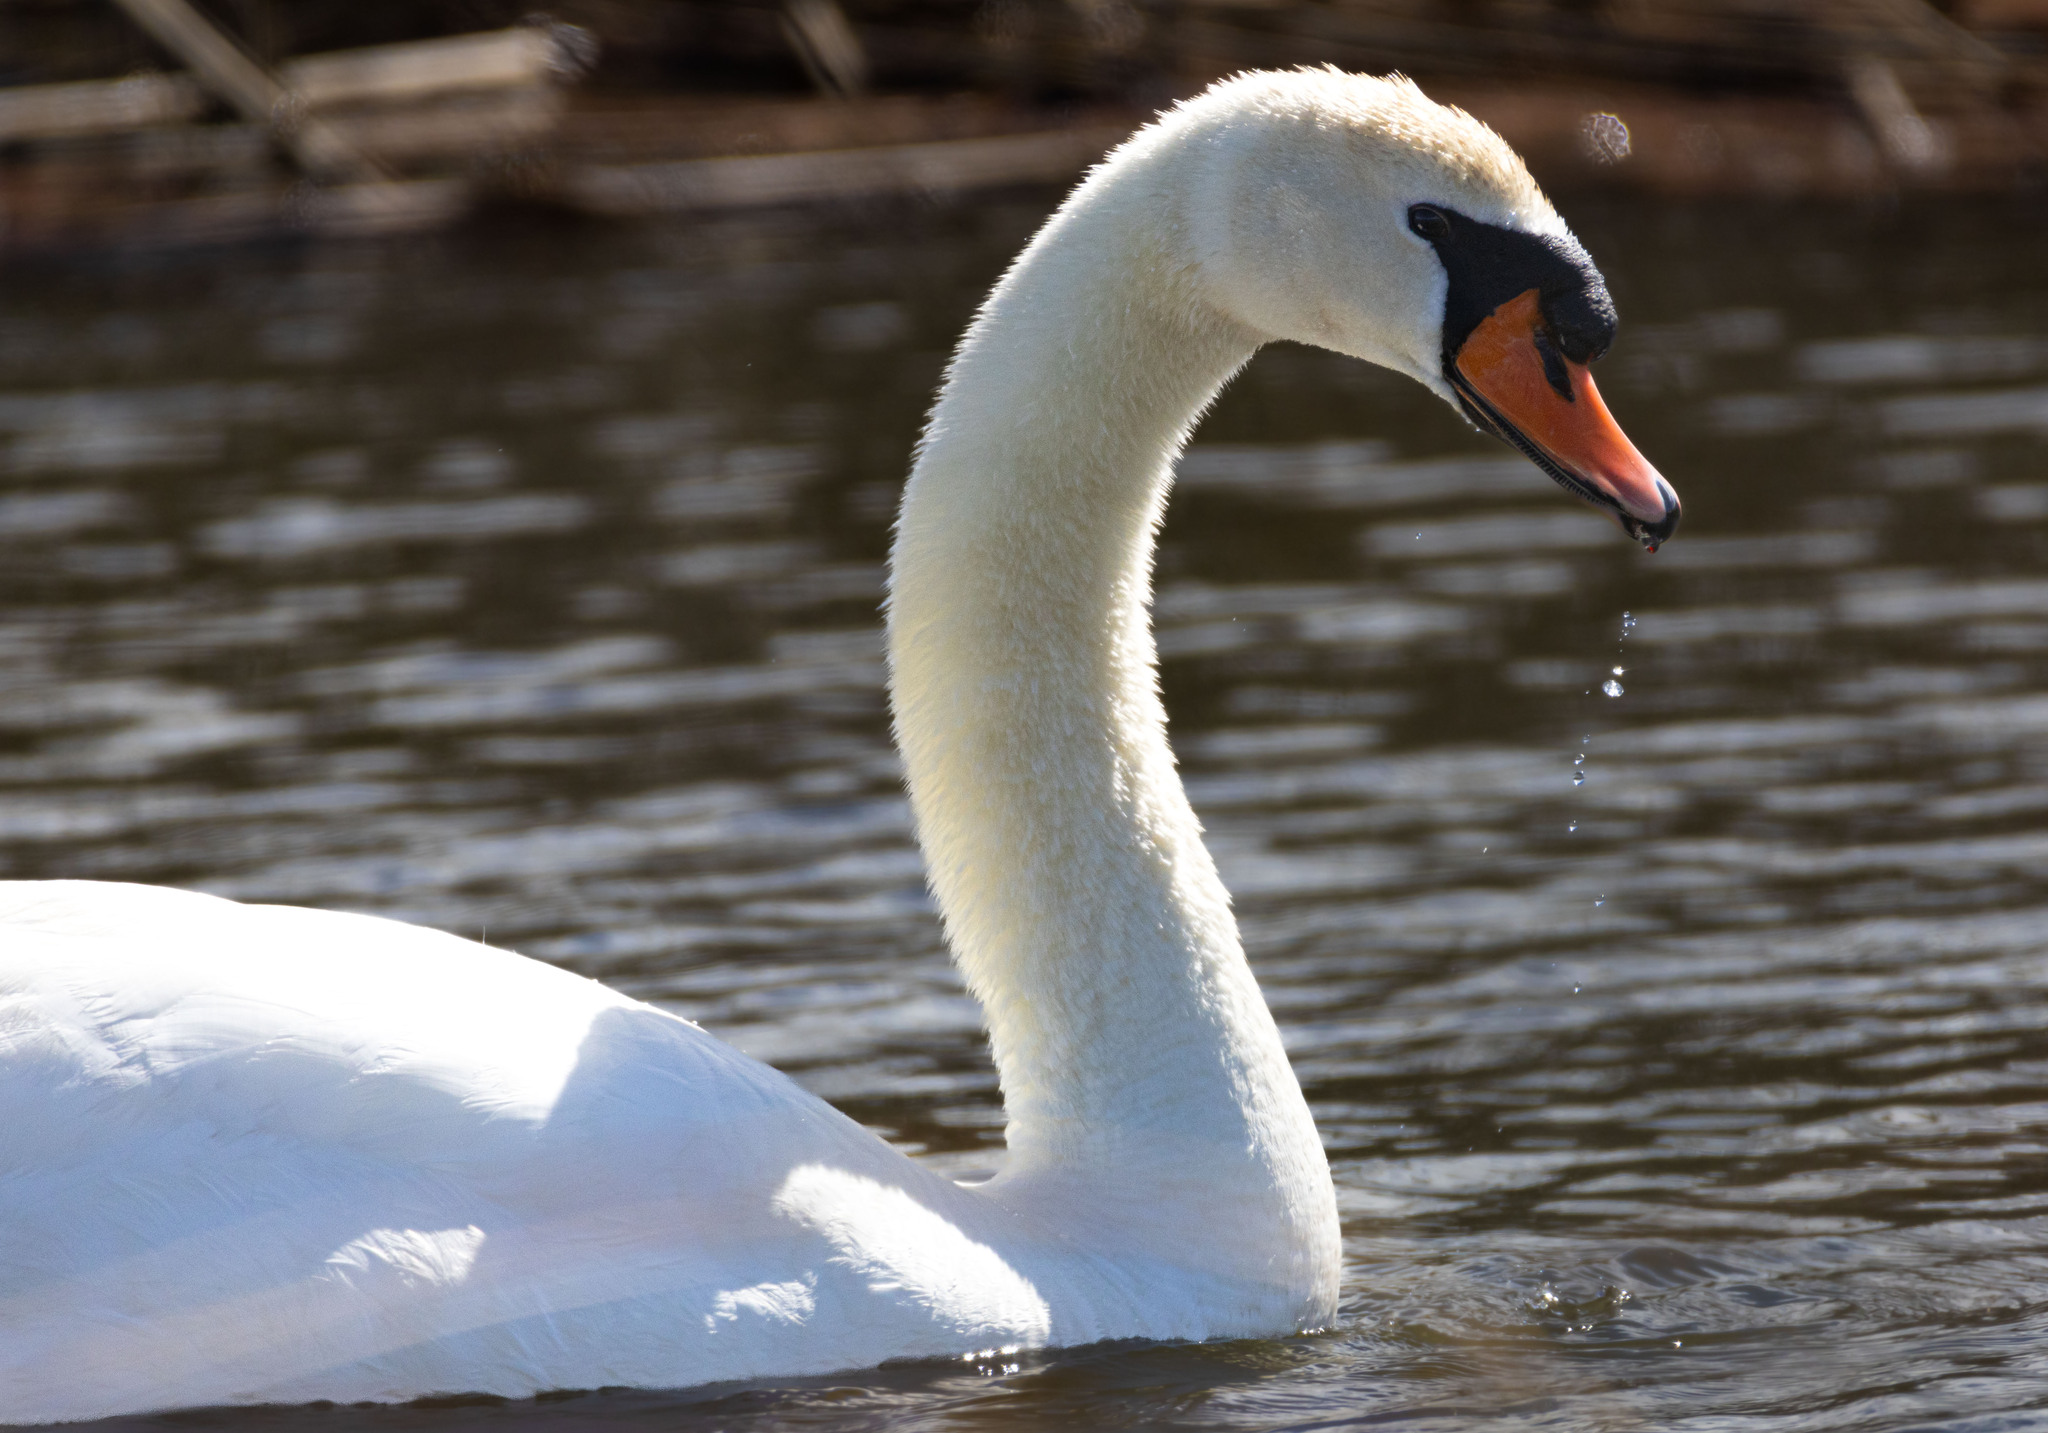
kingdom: Animalia
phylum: Chordata
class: Aves
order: Anseriformes
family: Anatidae
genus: Cygnus
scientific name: Cygnus olor
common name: Mute swan
